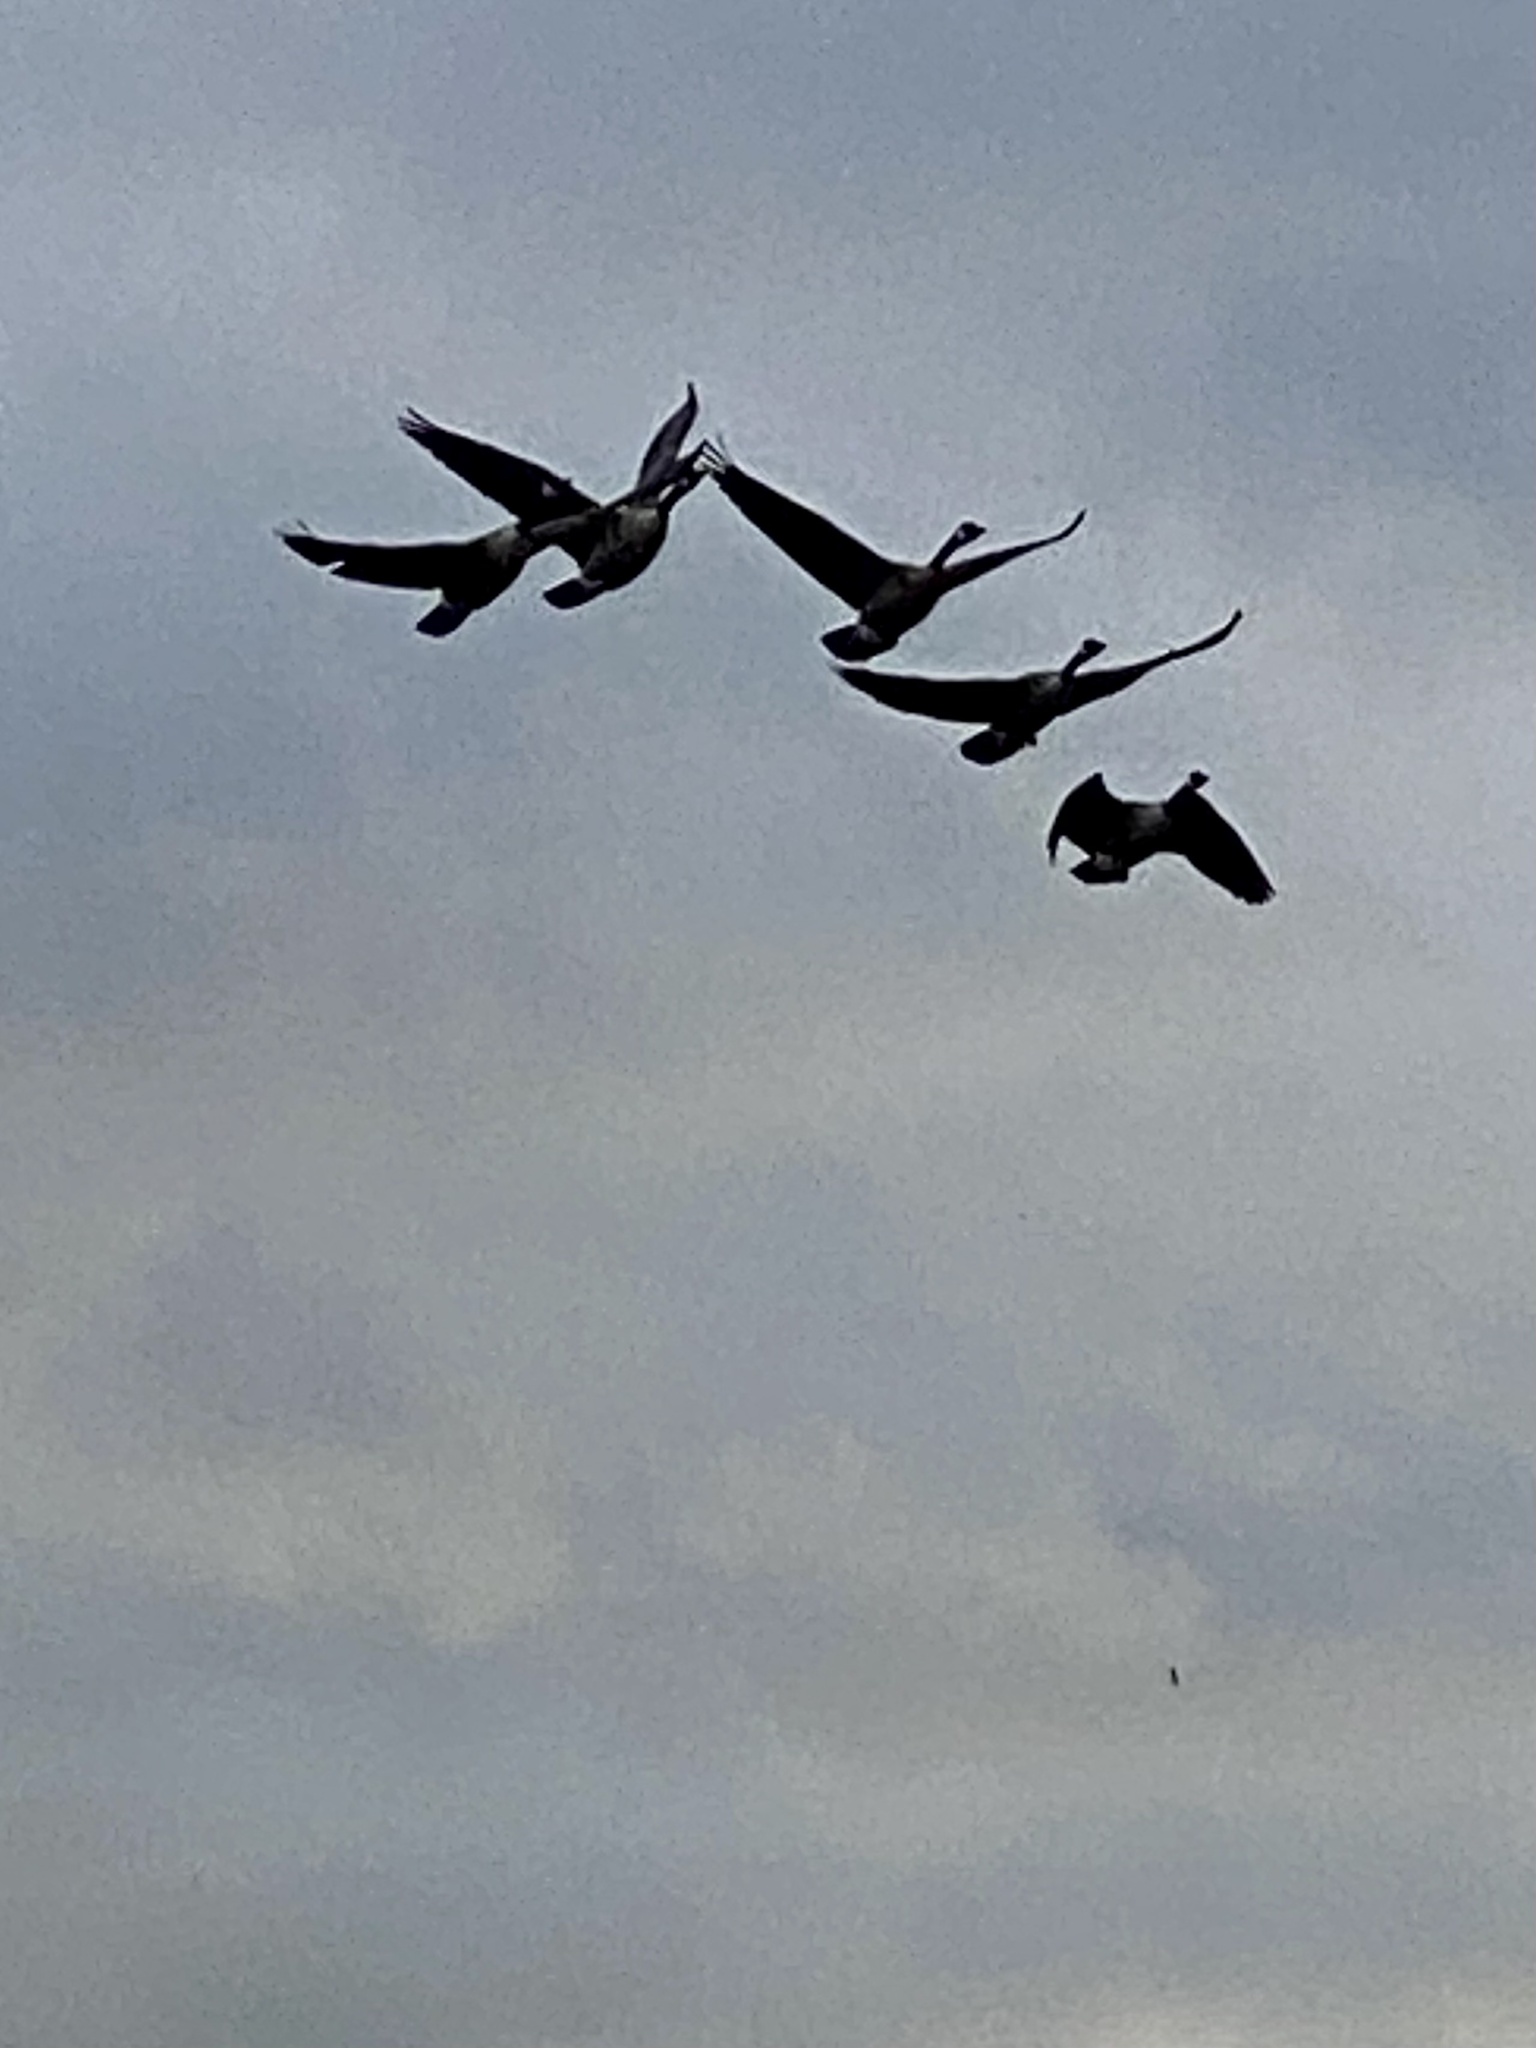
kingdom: Animalia
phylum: Chordata
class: Aves
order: Anseriformes
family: Anatidae
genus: Branta
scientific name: Branta canadensis
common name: Canada goose
